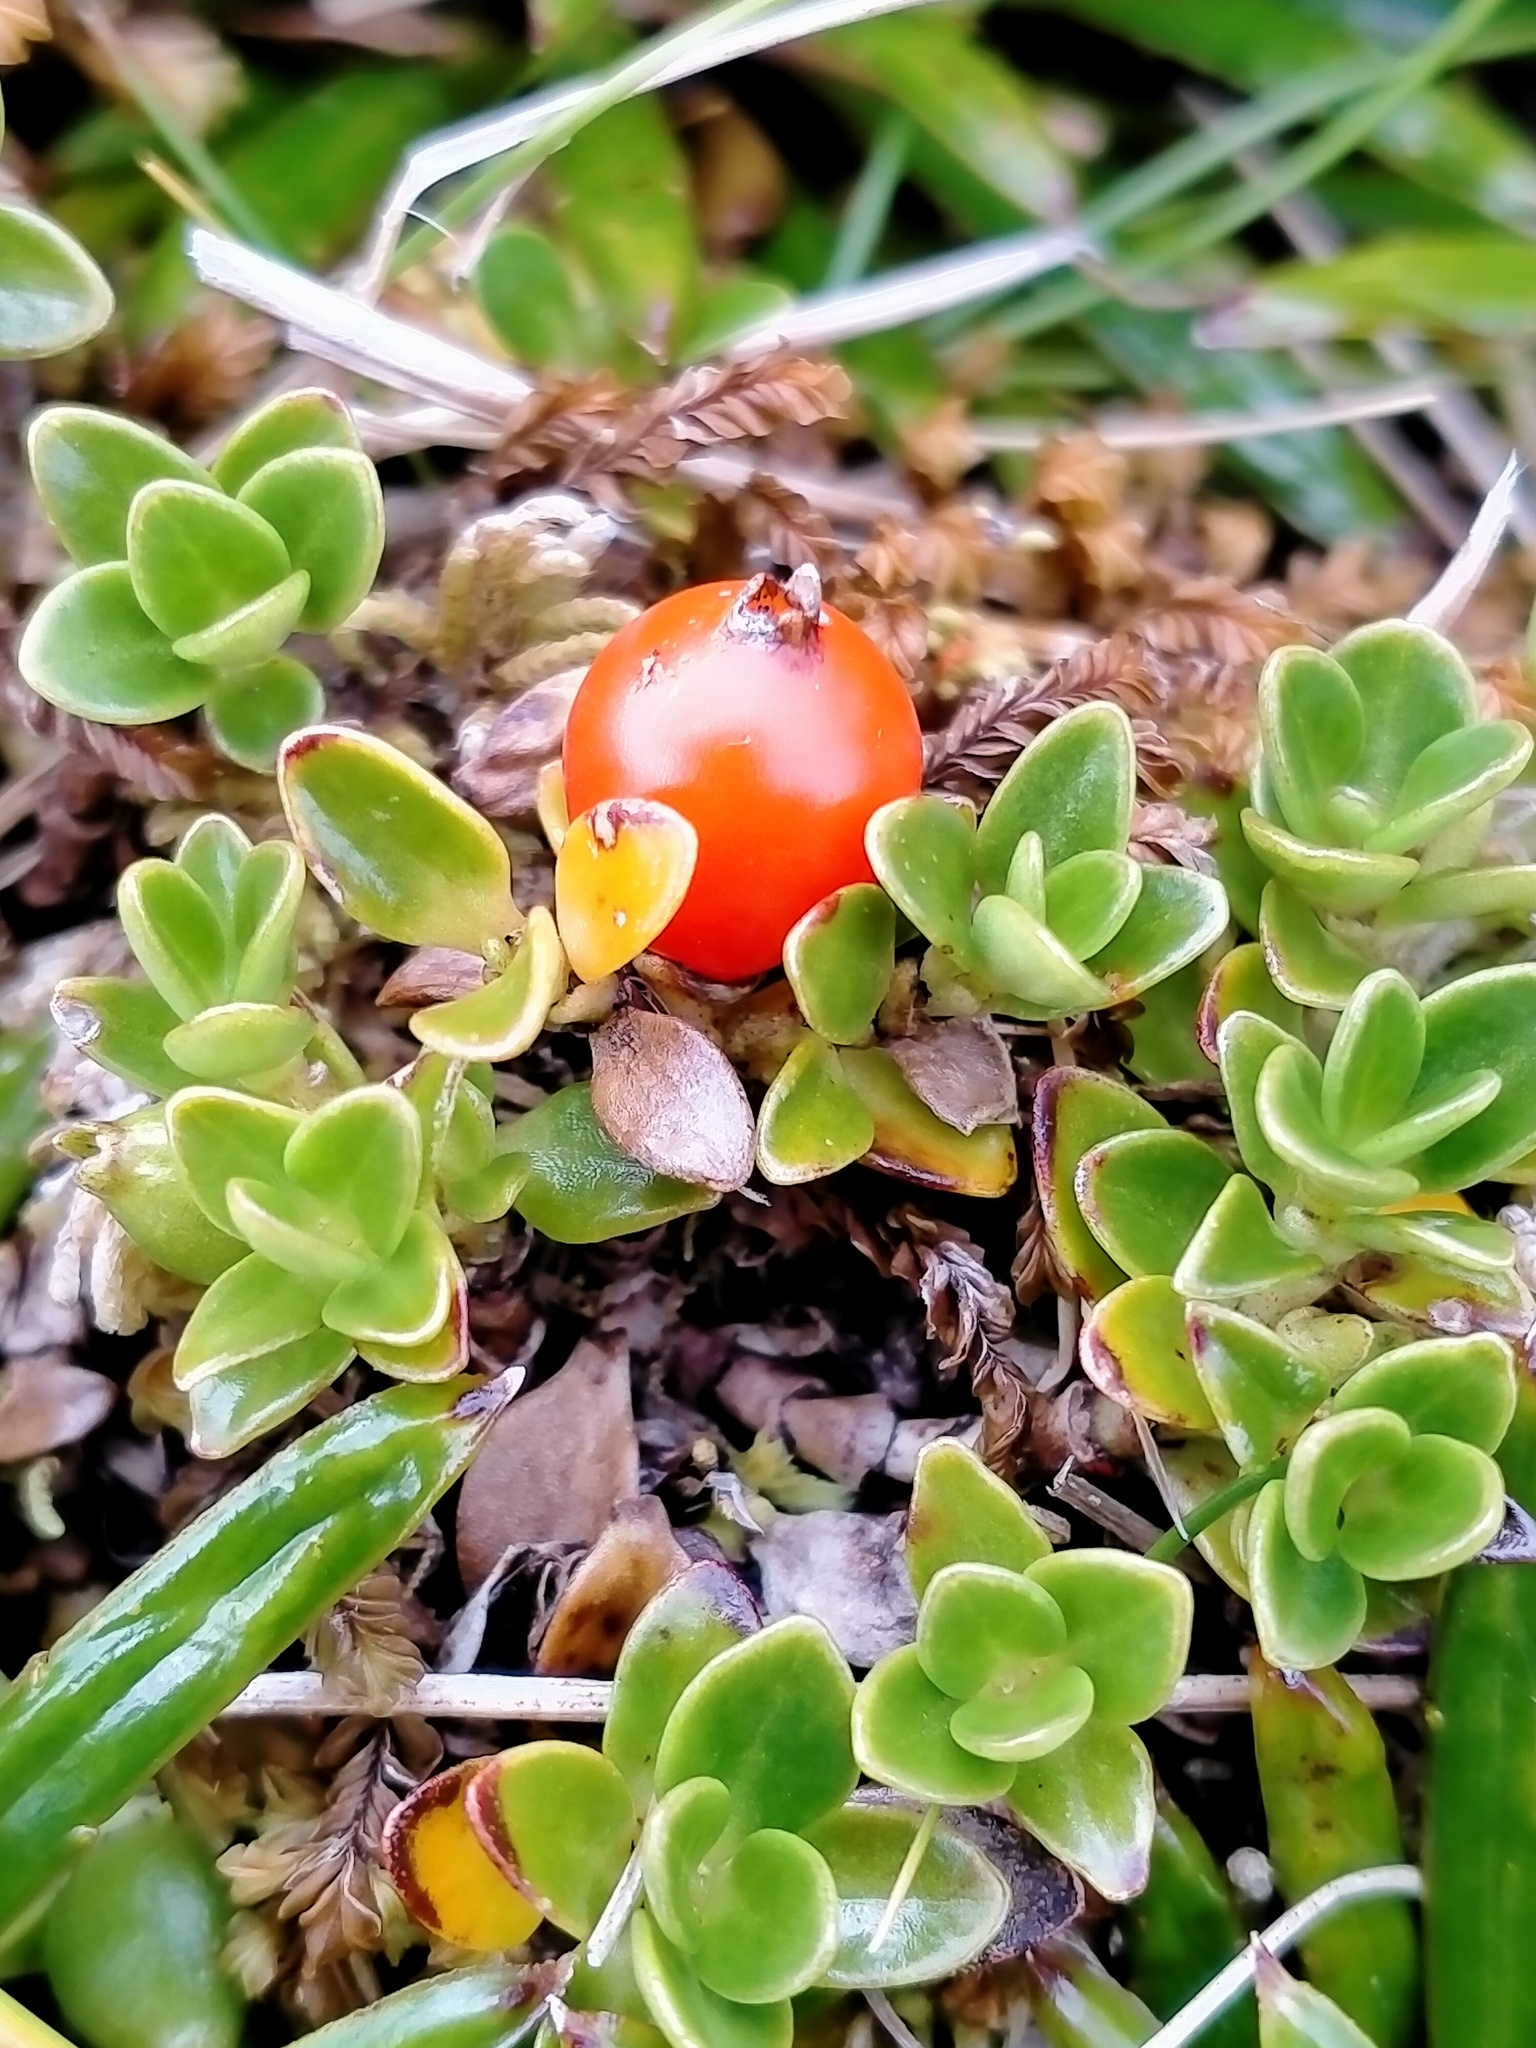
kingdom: Plantae
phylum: Tracheophyta
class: Magnoliopsida
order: Gentianales
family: Rubiaceae
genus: Coprosma
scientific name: Coprosma perpusilla
